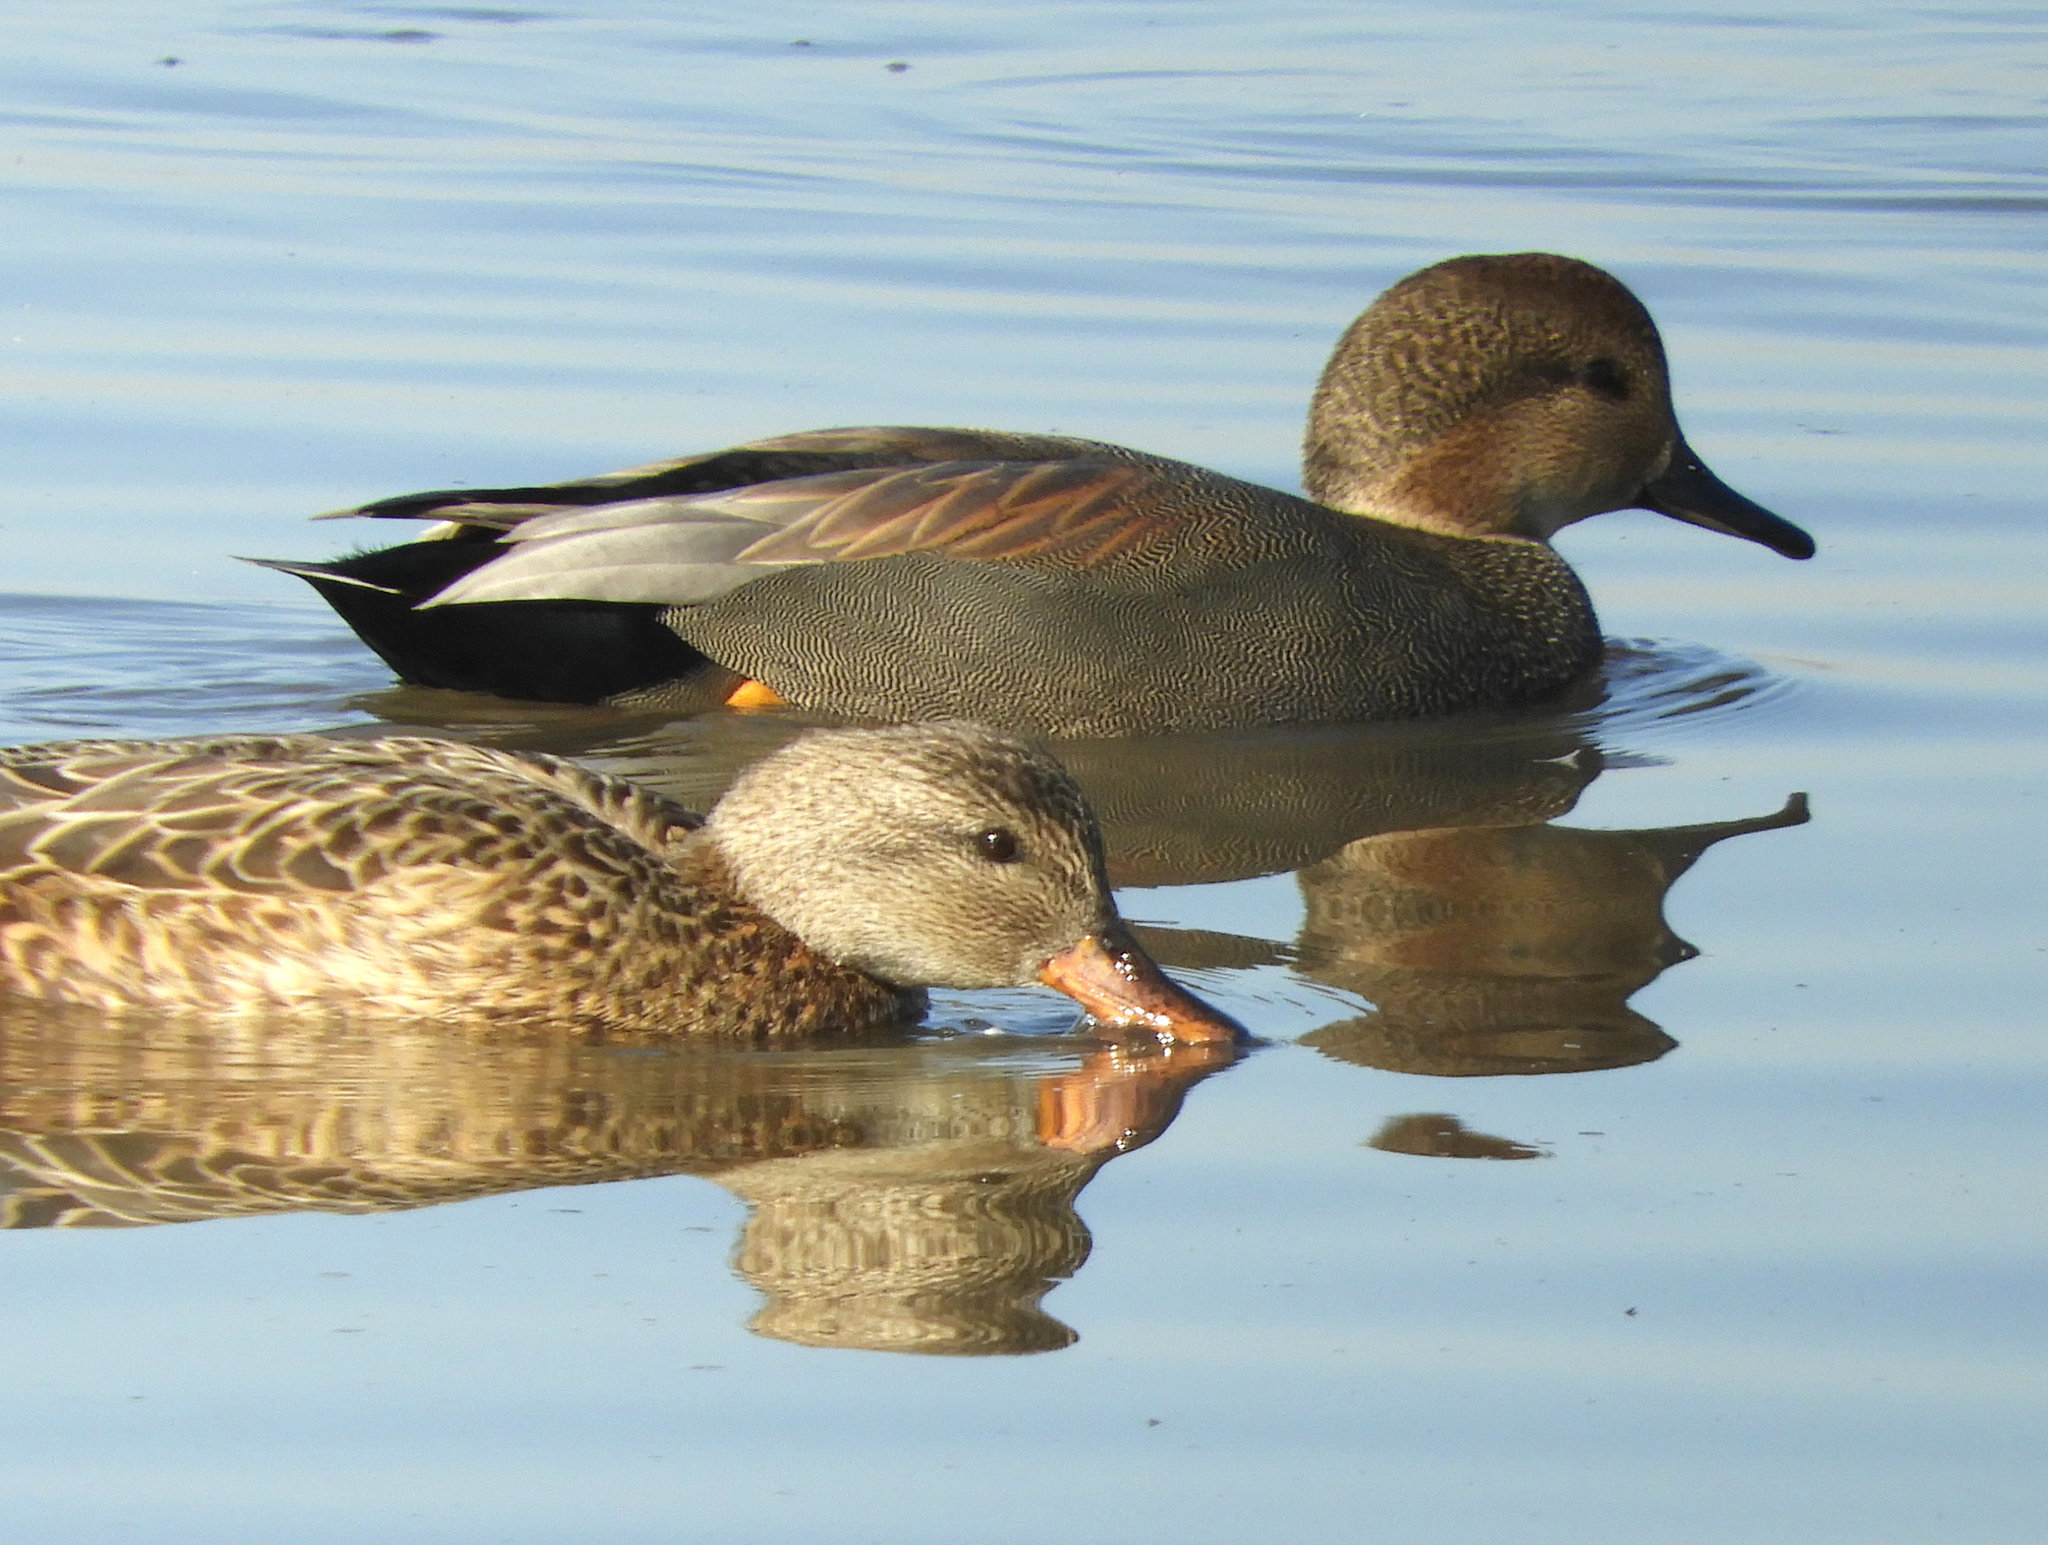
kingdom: Animalia
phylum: Chordata
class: Aves
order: Anseriformes
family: Anatidae
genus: Mareca
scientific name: Mareca strepera
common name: Gadwall
